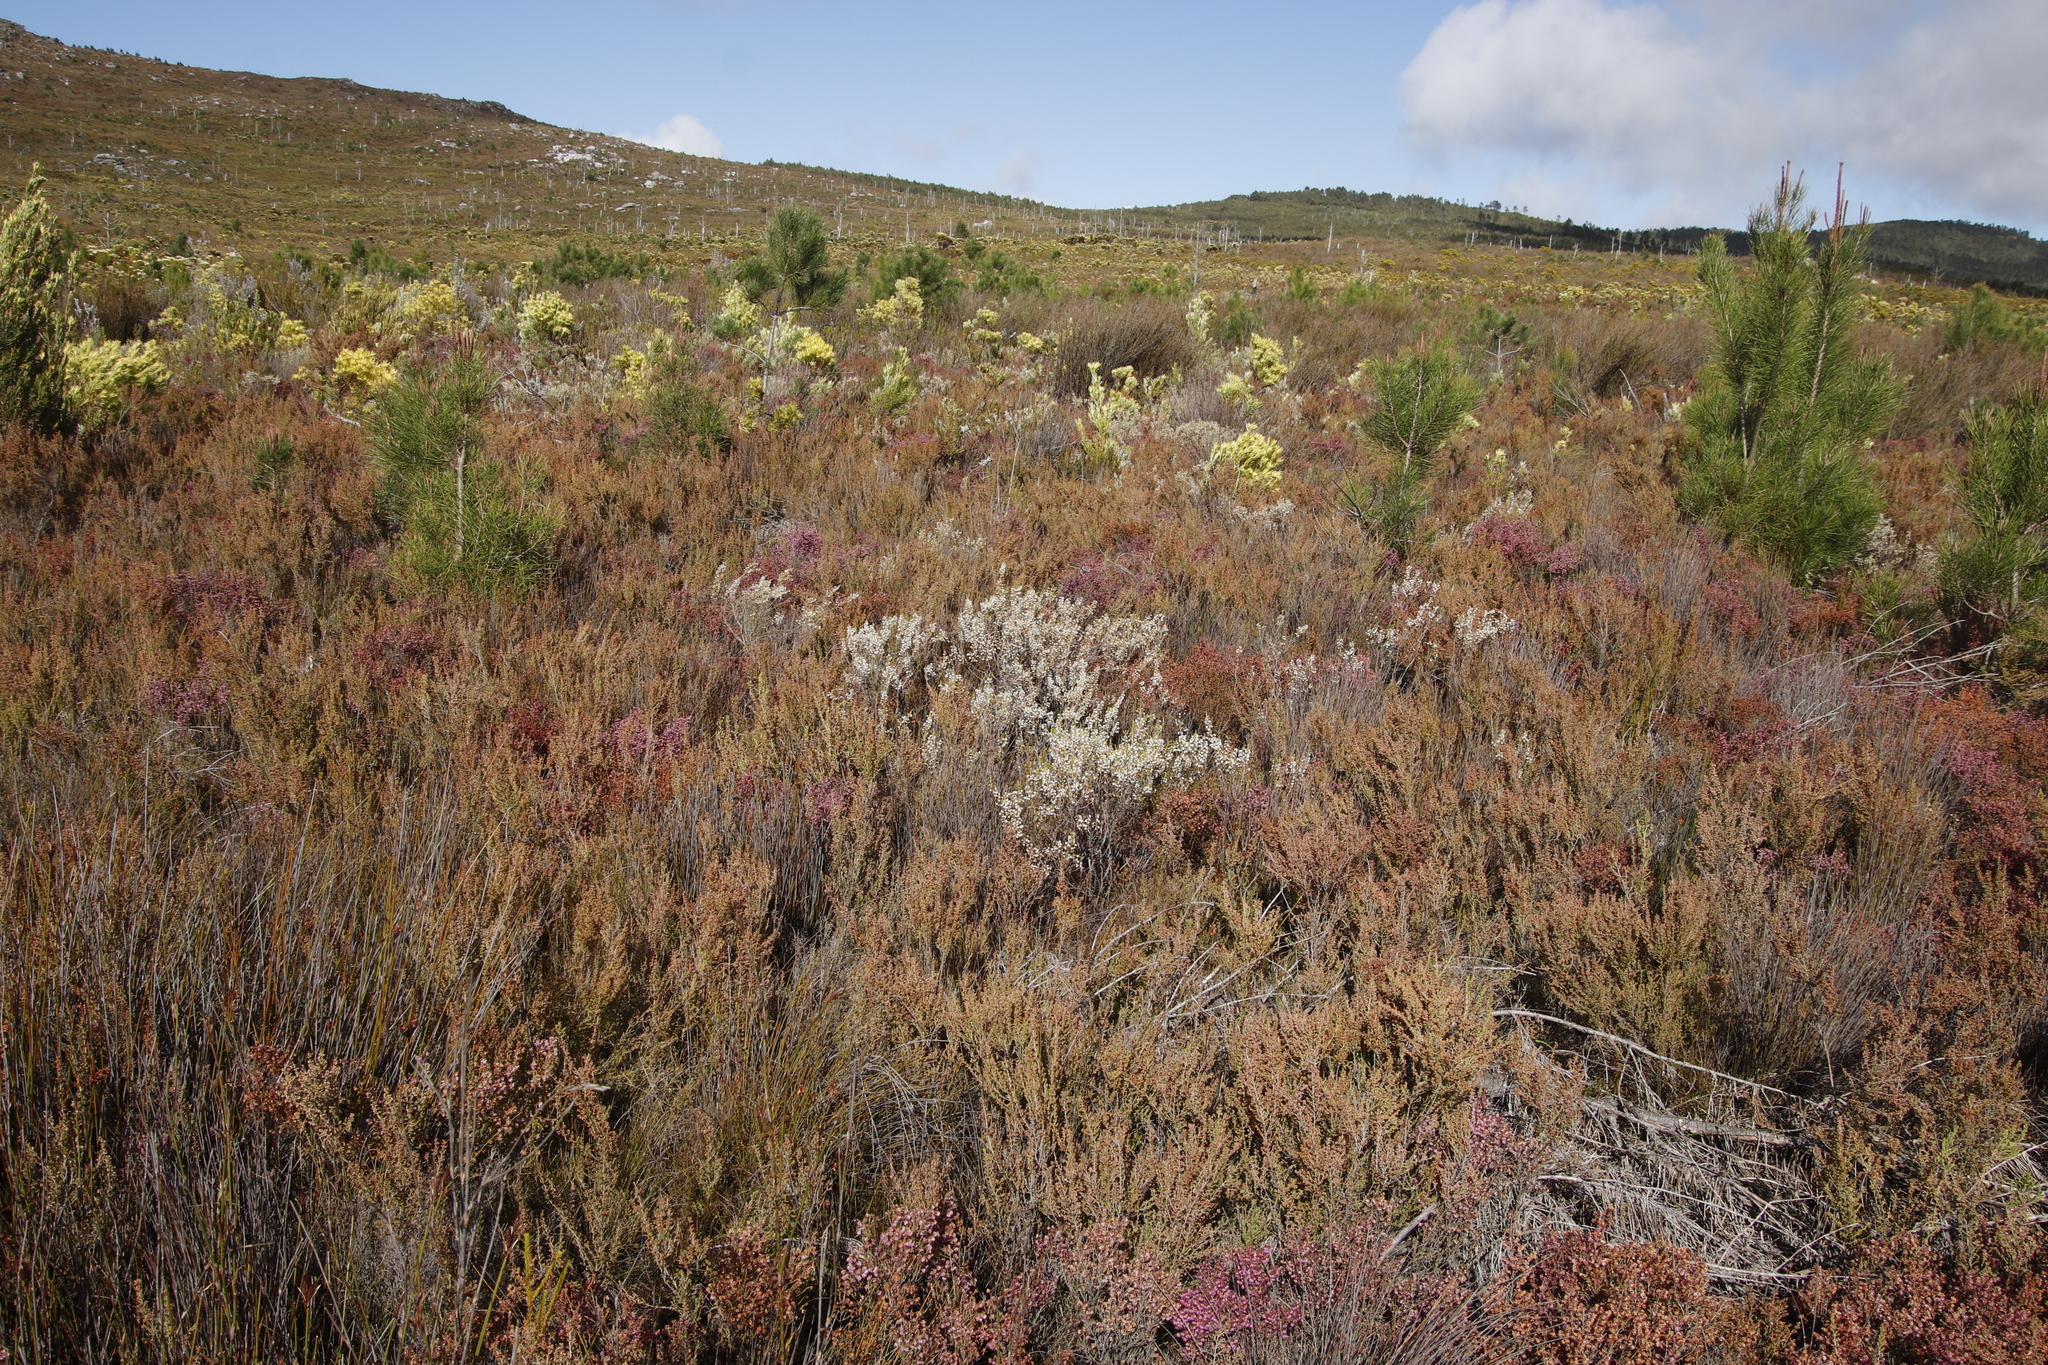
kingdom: Plantae
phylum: Tracheophyta
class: Magnoliopsida
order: Ericales
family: Ericaceae
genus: Erica
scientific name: Erica imbricata
